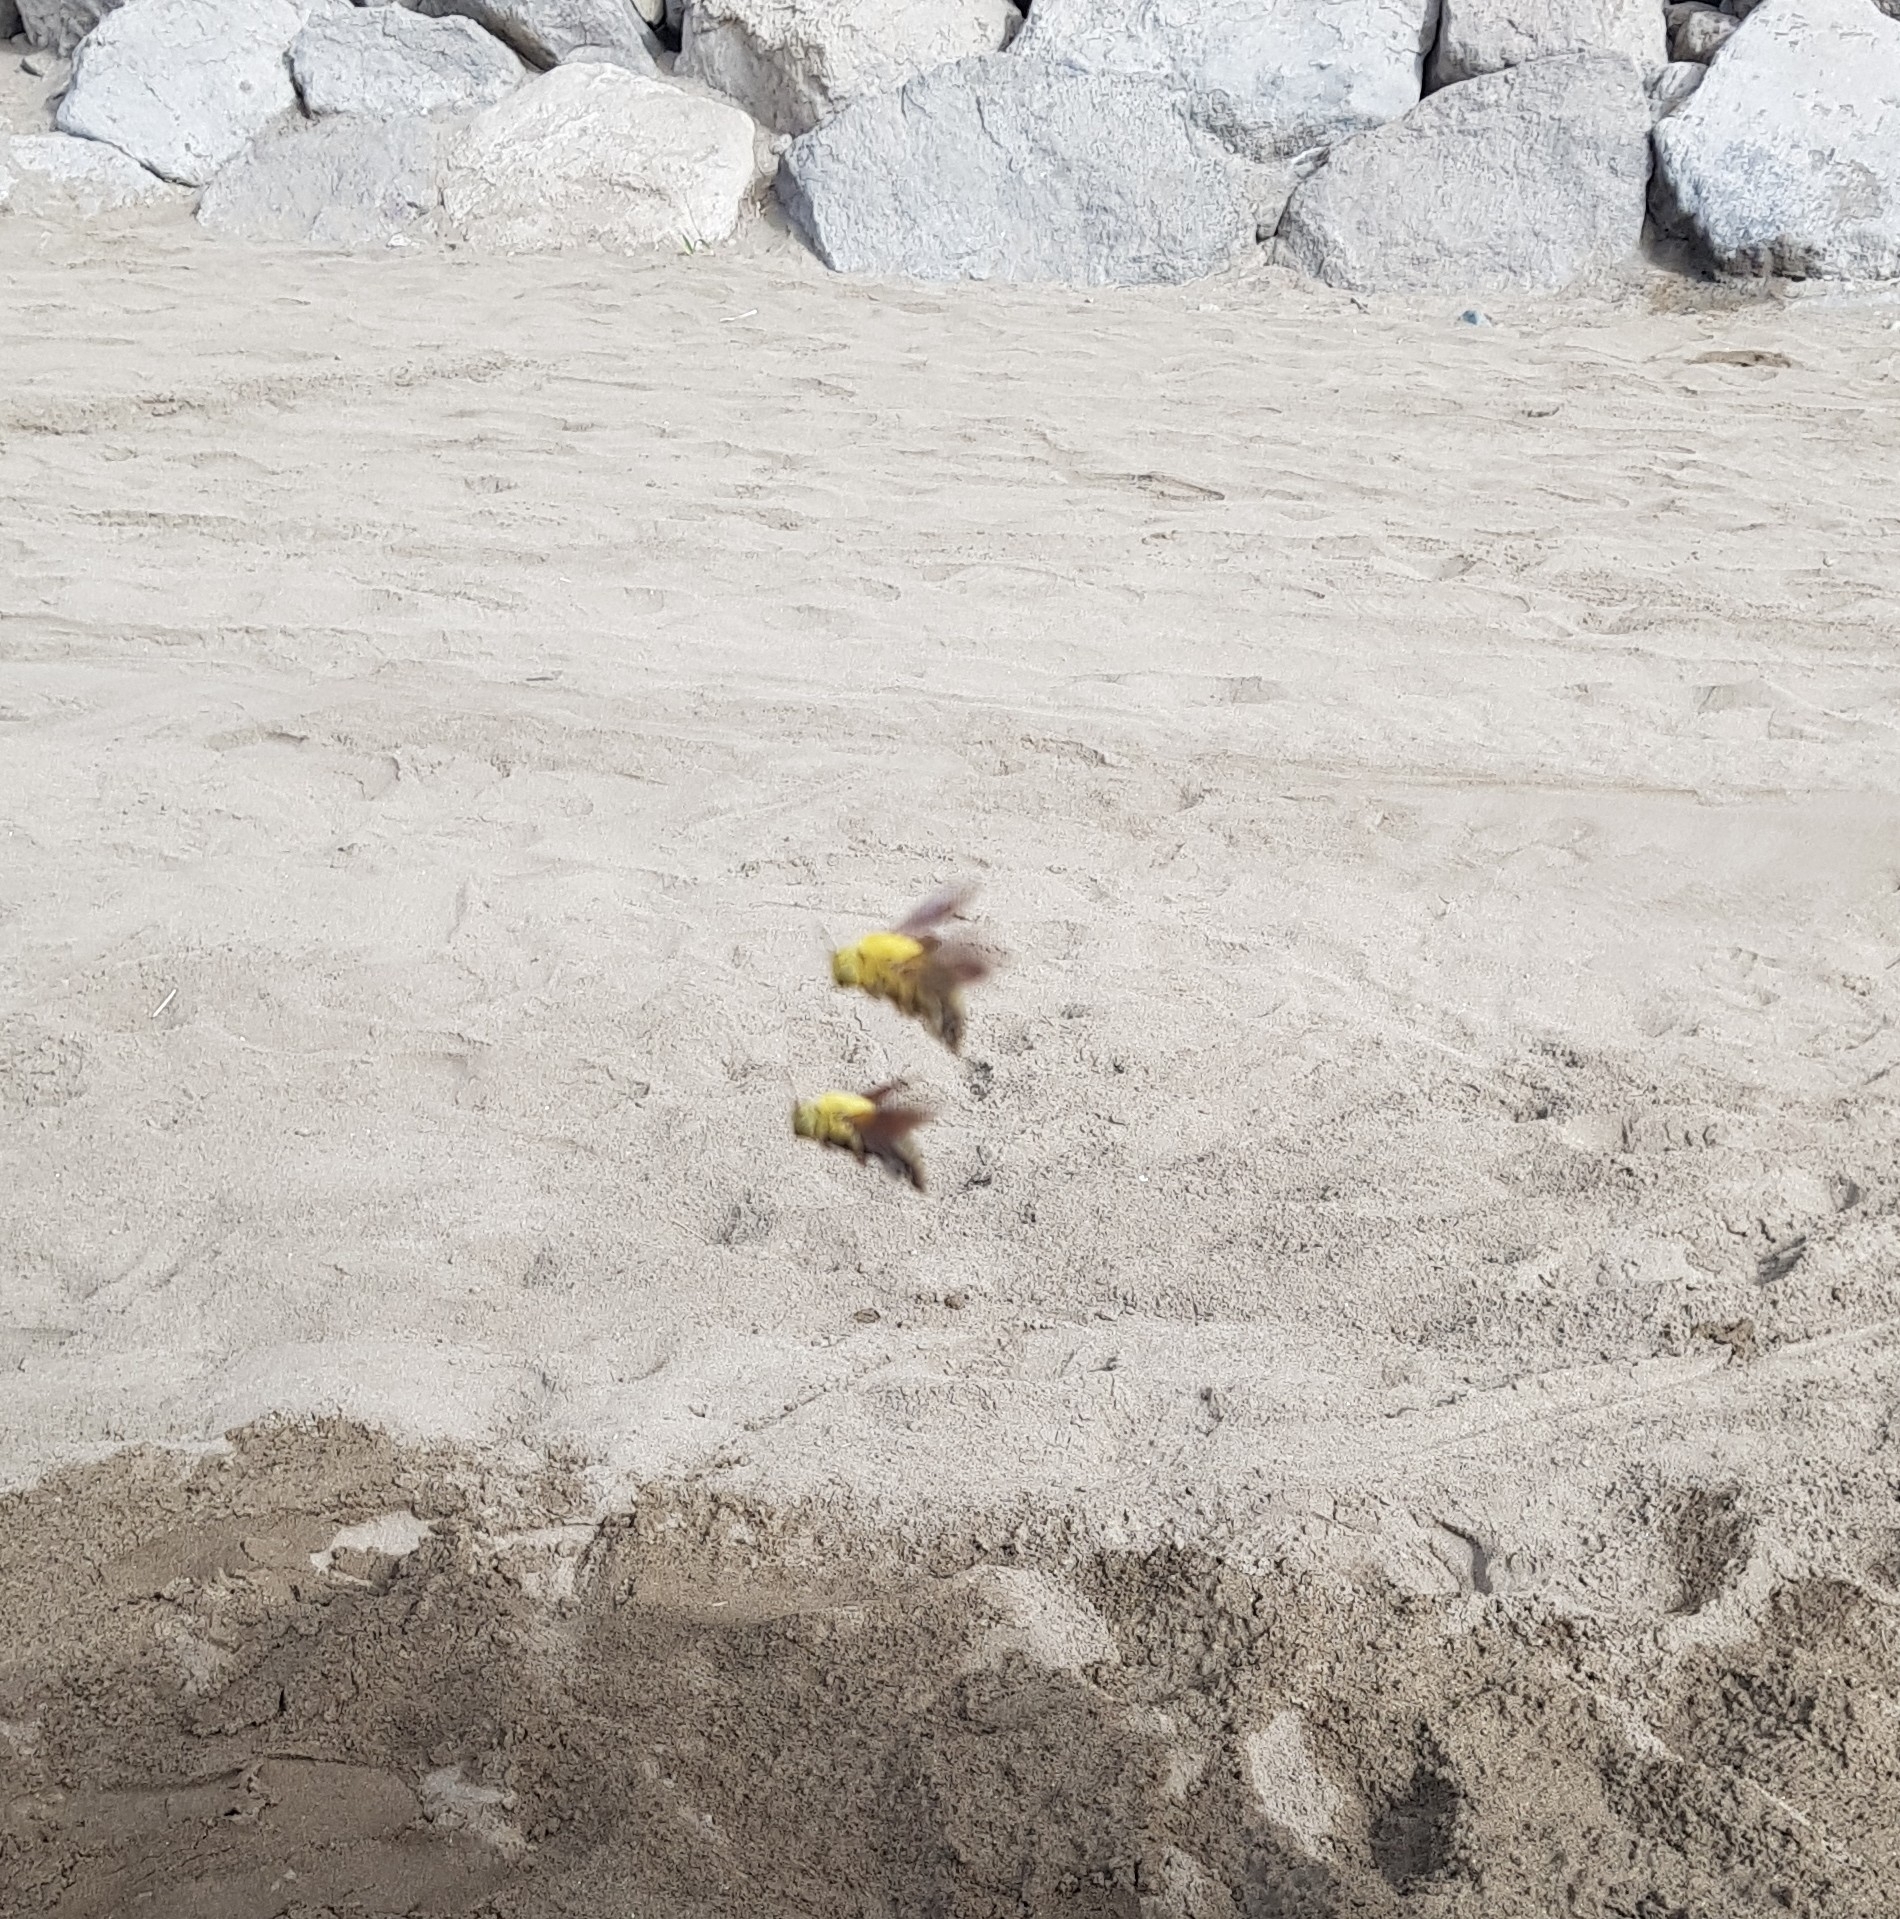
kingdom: Animalia
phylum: Arthropoda
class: Insecta
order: Hymenoptera
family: Apidae
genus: Xylocopa
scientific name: Xylocopa pubescens
